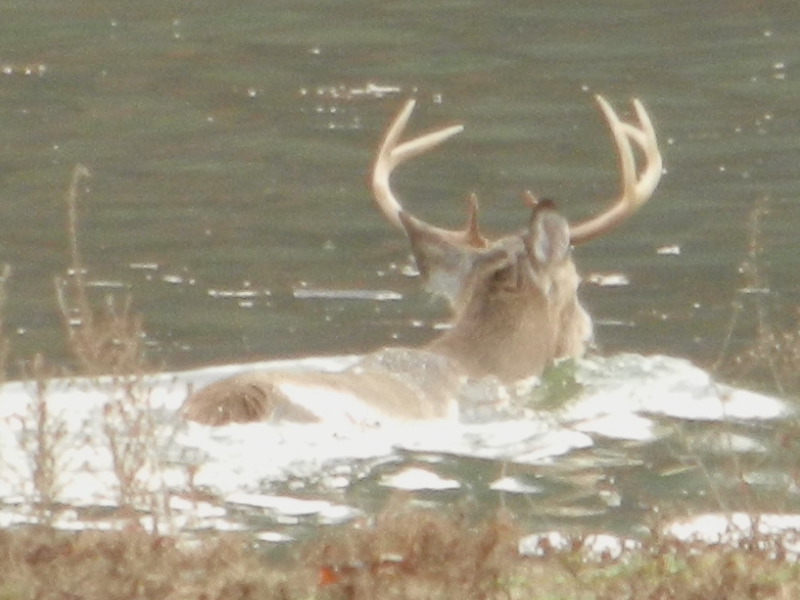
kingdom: Animalia
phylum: Chordata
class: Mammalia
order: Artiodactyla
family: Cervidae
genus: Odocoileus
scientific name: Odocoileus virginianus
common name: White-tailed deer
